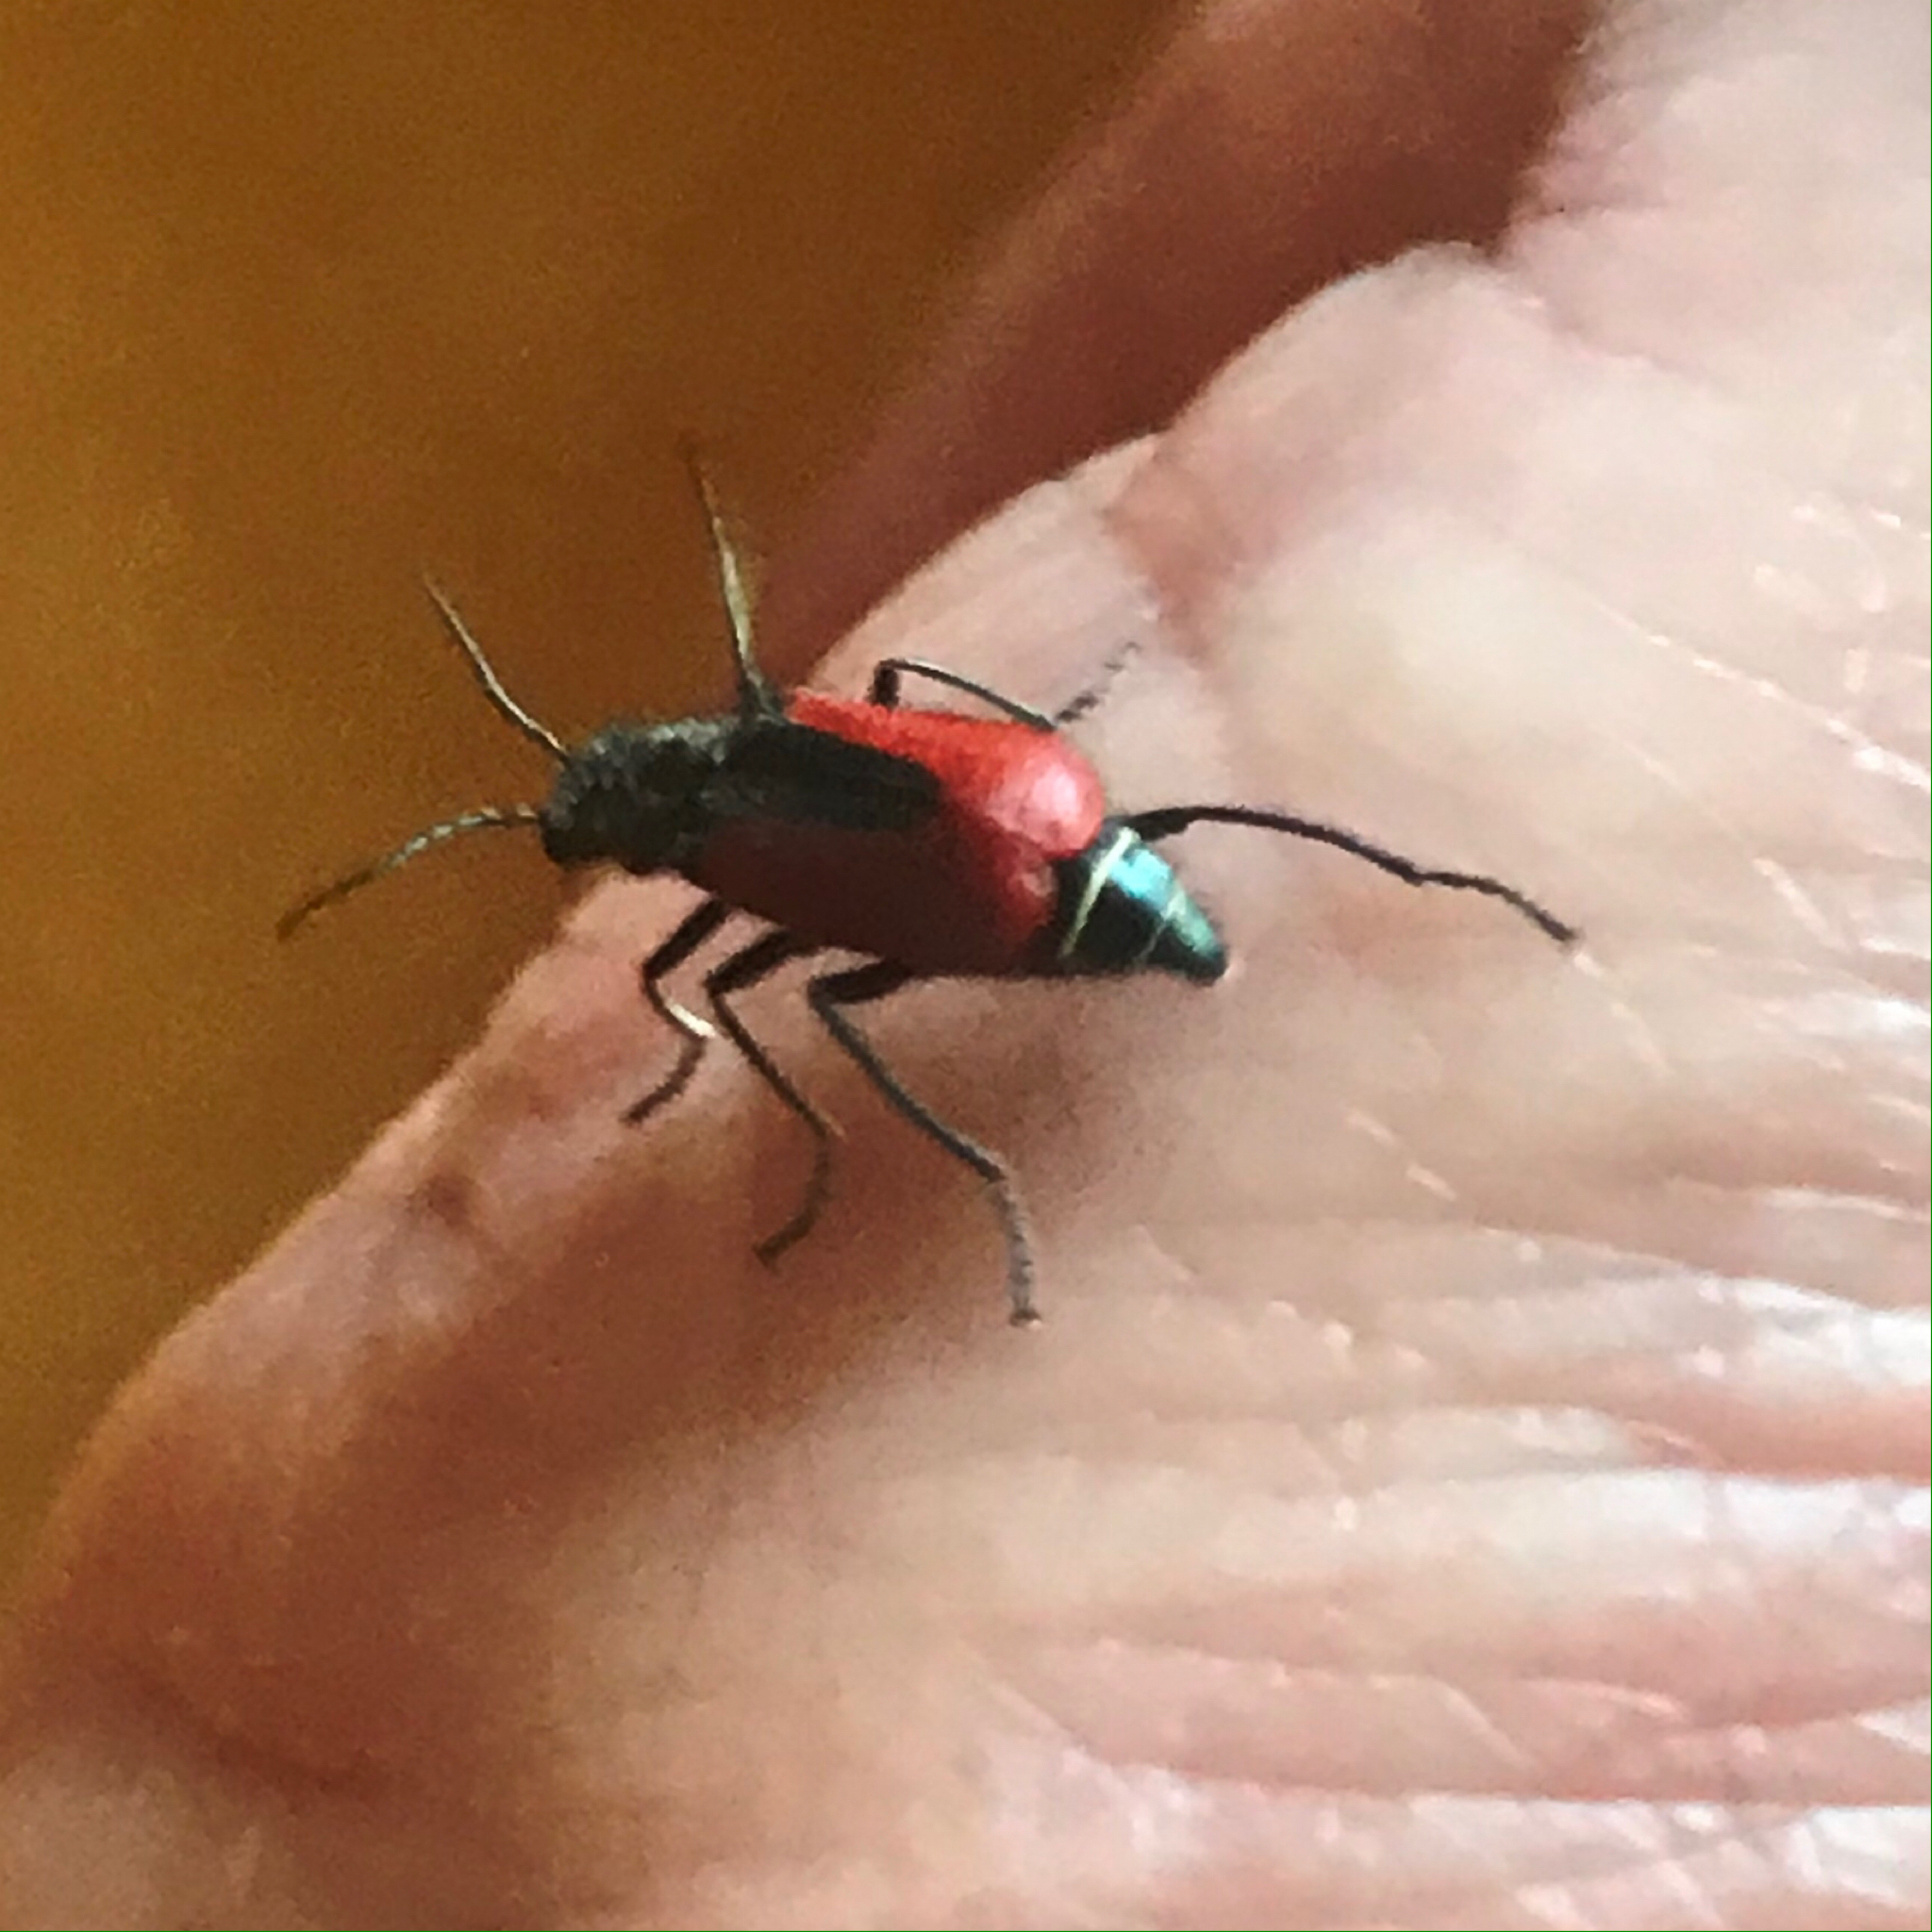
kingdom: Animalia
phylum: Arthropoda
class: Insecta
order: Coleoptera
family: Melyridae
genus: Malachius
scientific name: Malachius aeneus
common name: Scarlet malachite beetle
